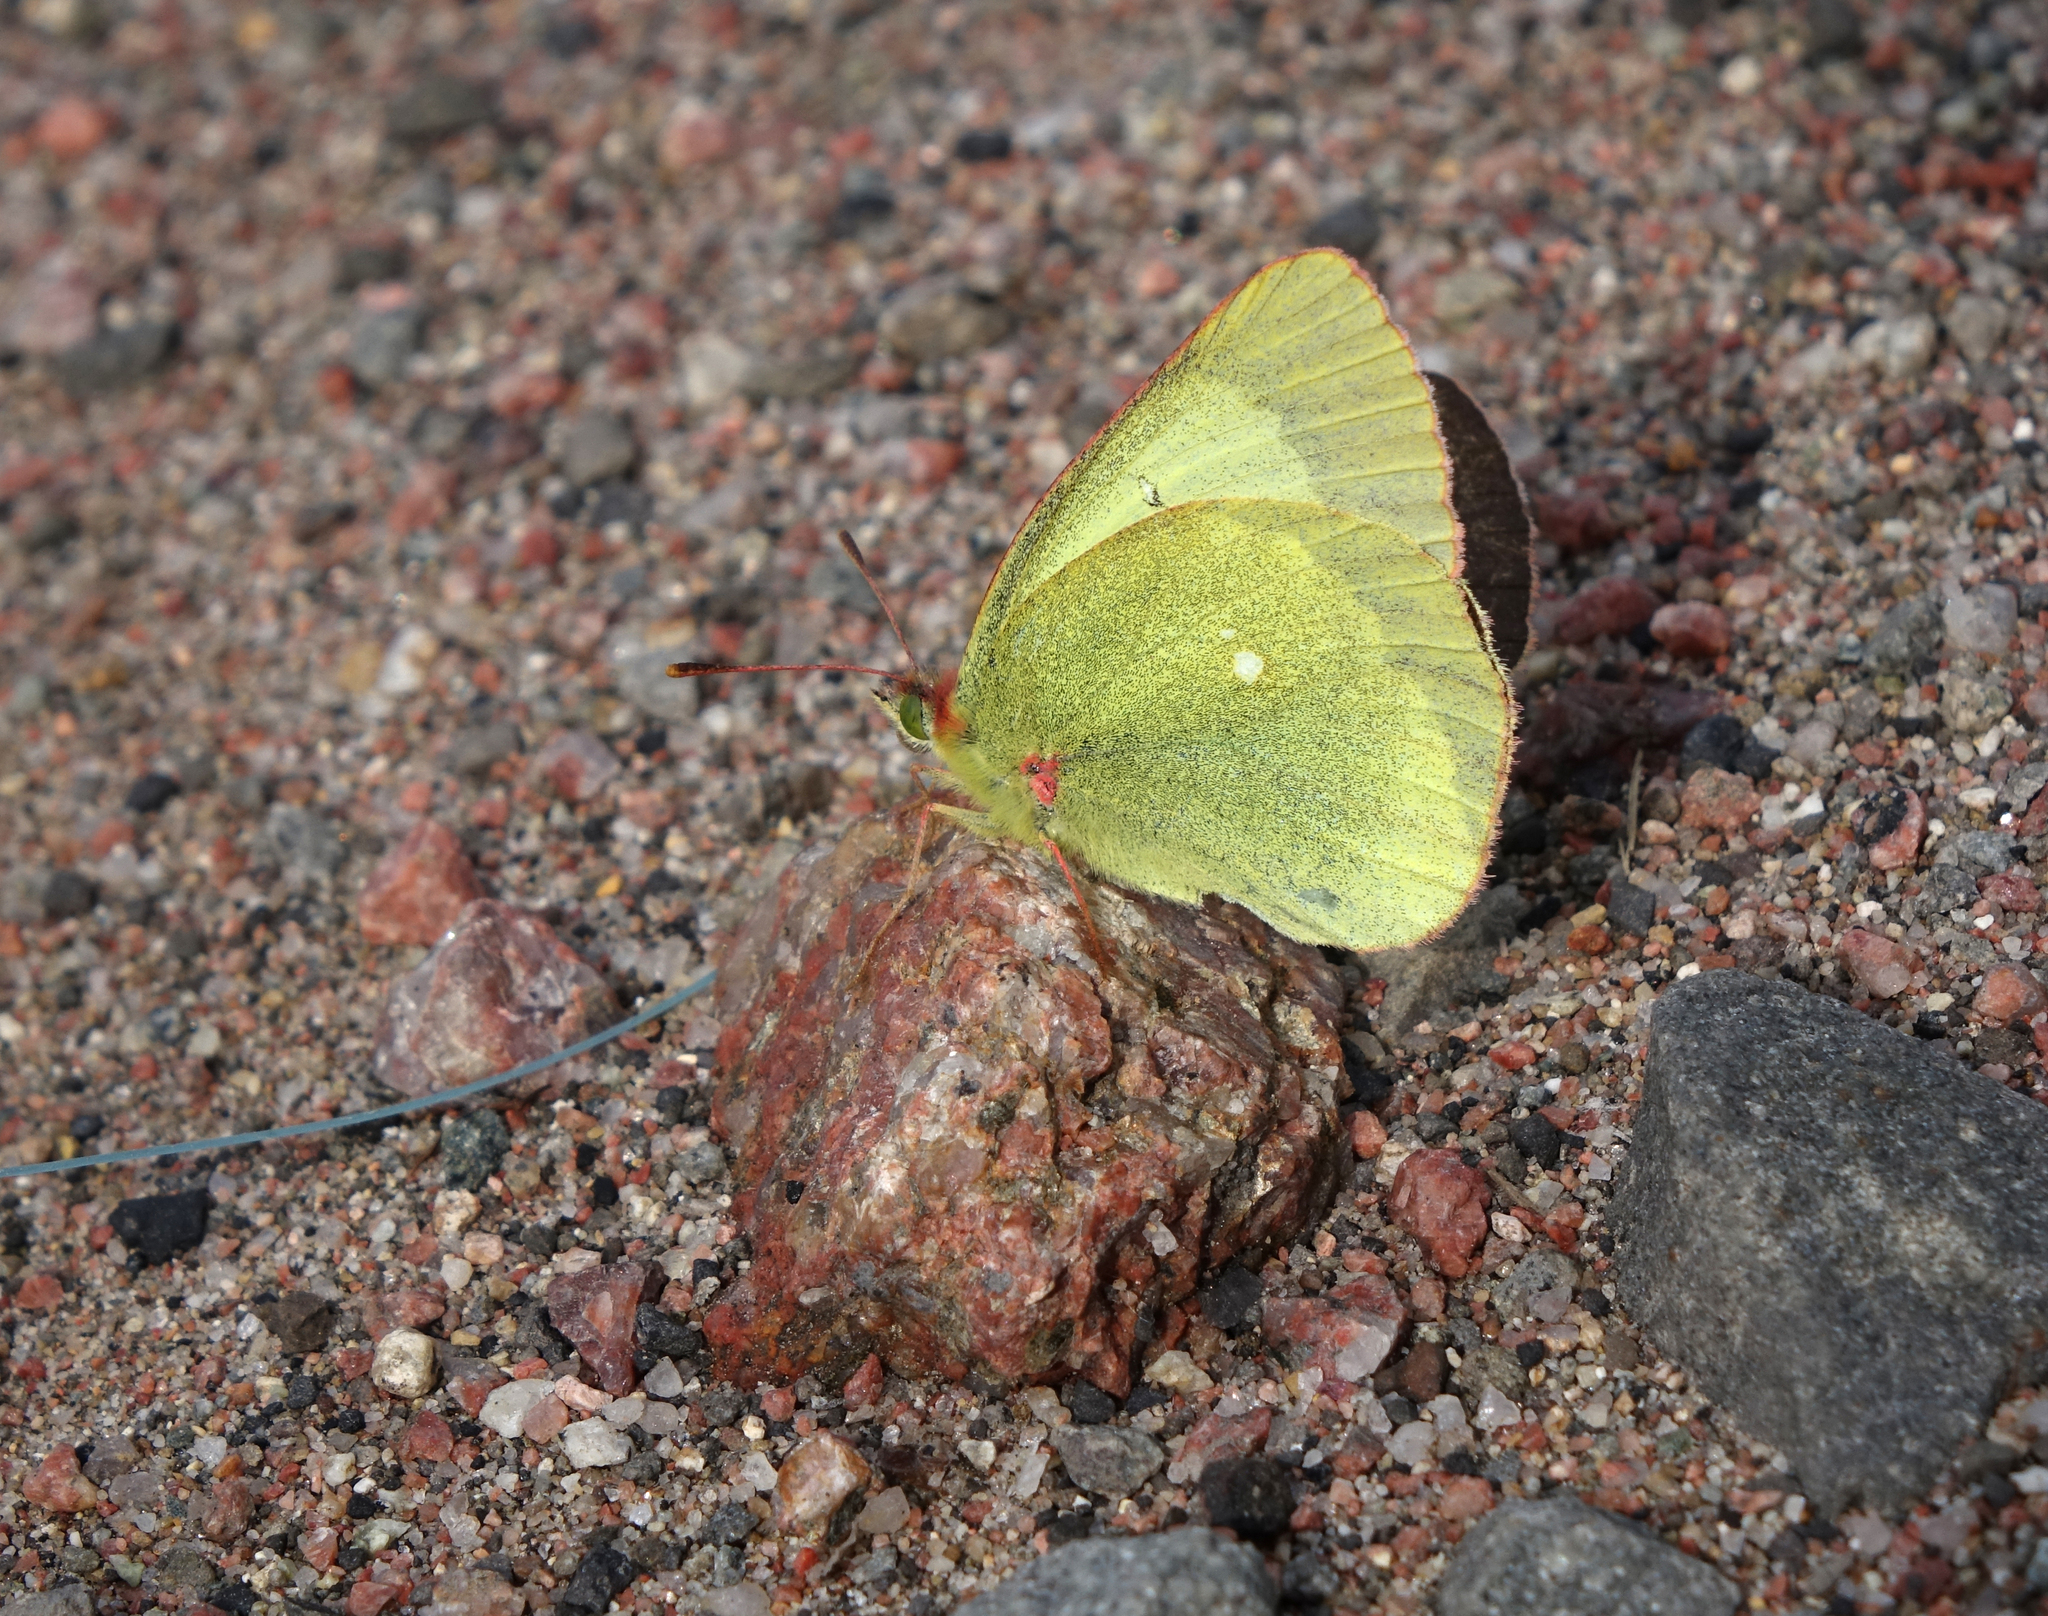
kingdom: Animalia
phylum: Arthropoda
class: Insecta
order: Lepidoptera
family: Pieridae
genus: Colias
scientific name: Colias palaeno
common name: Moorland clouded yellow
